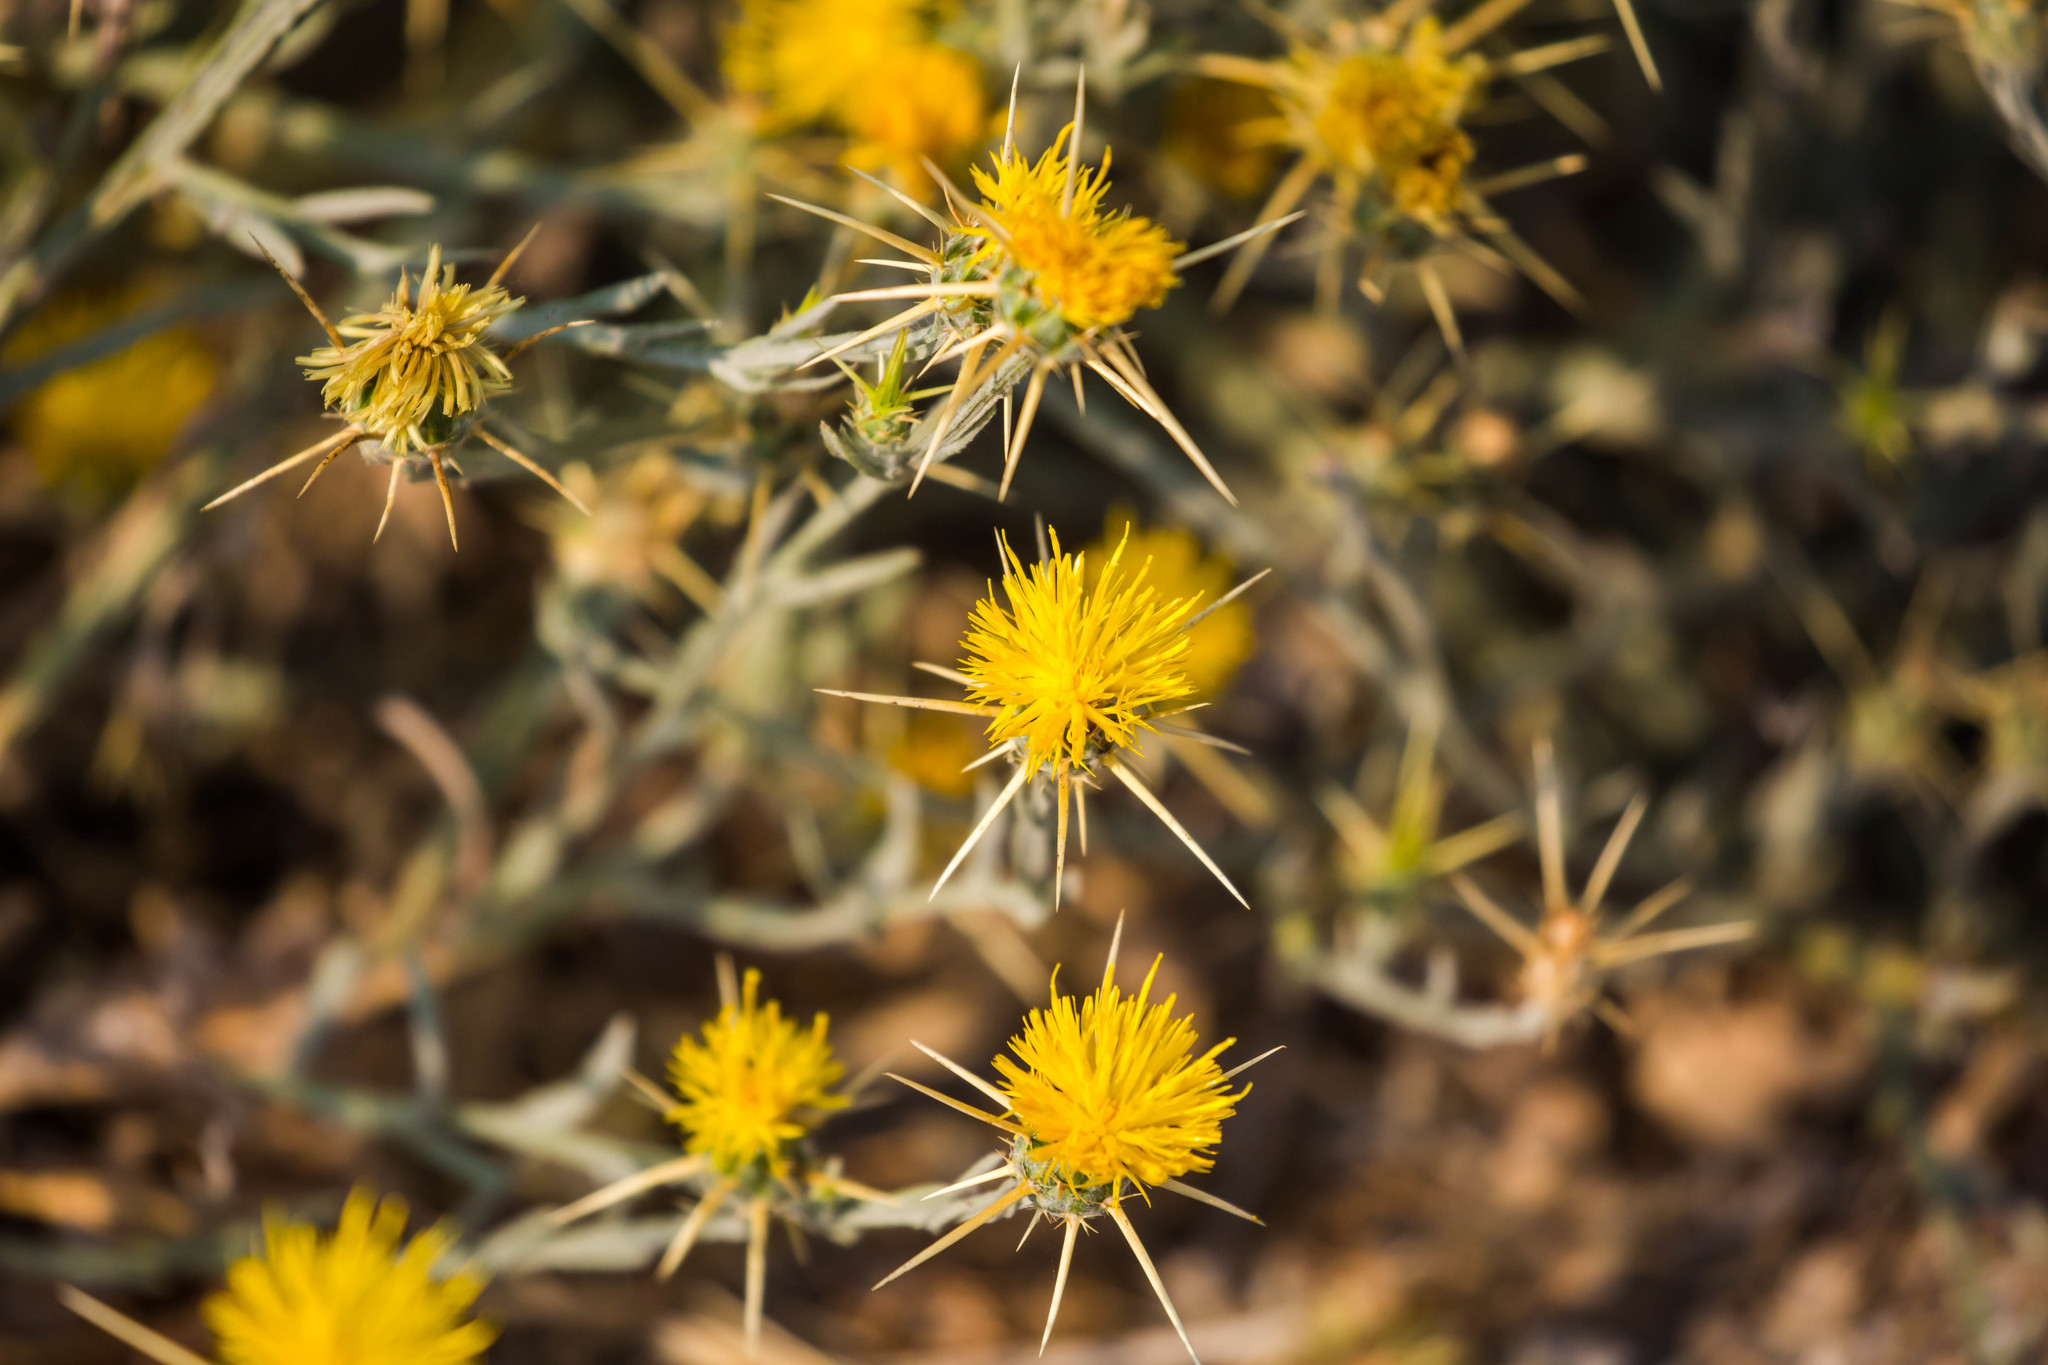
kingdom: Plantae
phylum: Tracheophyta
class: Magnoliopsida
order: Asterales
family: Asteraceae
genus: Centaurea
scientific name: Centaurea solstitialis
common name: Yellow star-thistle
